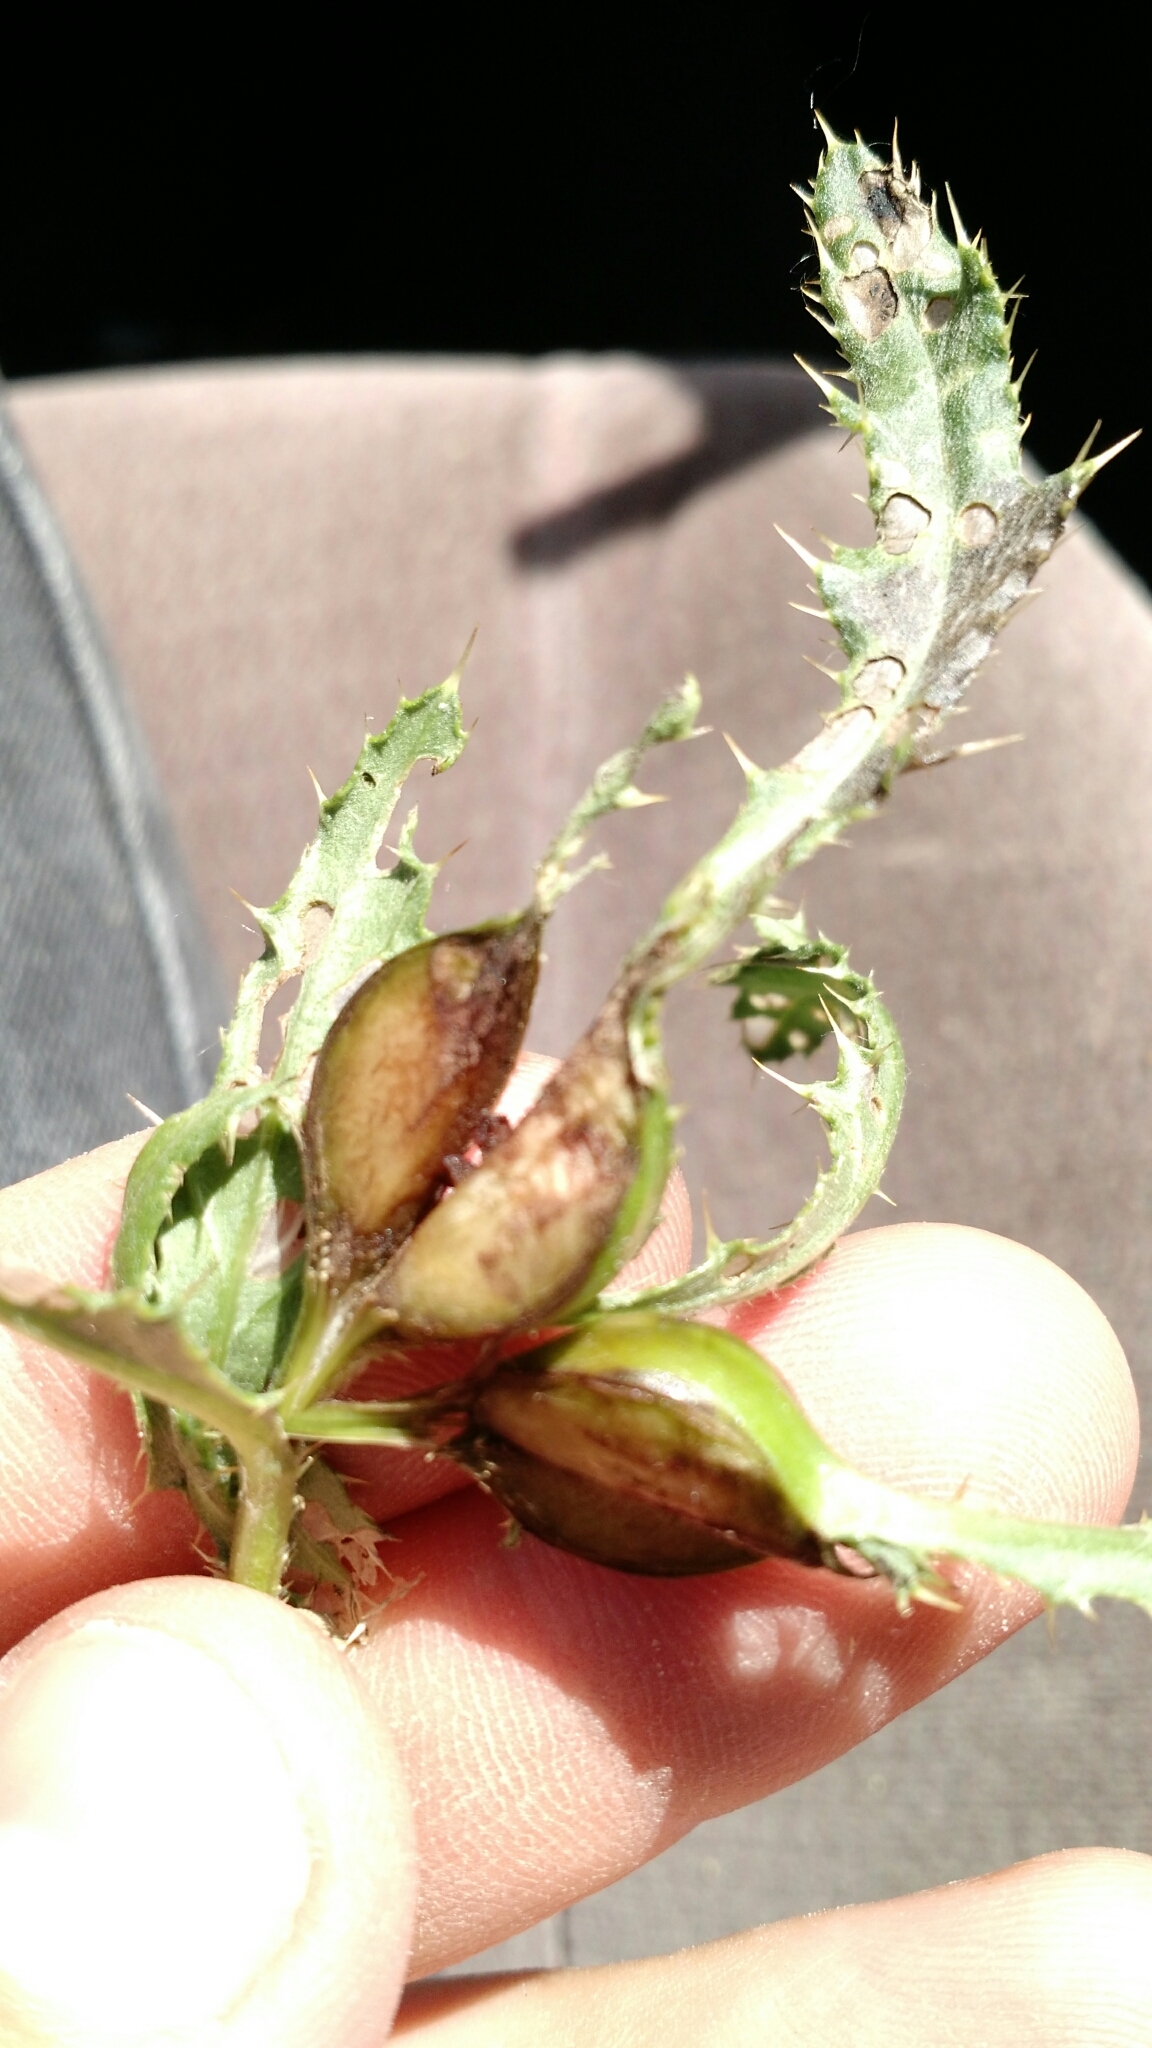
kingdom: Animalia
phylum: Arthropoda
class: Insecta
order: Diptera
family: Tephritidae
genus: Urophora
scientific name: Urophora cardui
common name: Fruit fly
